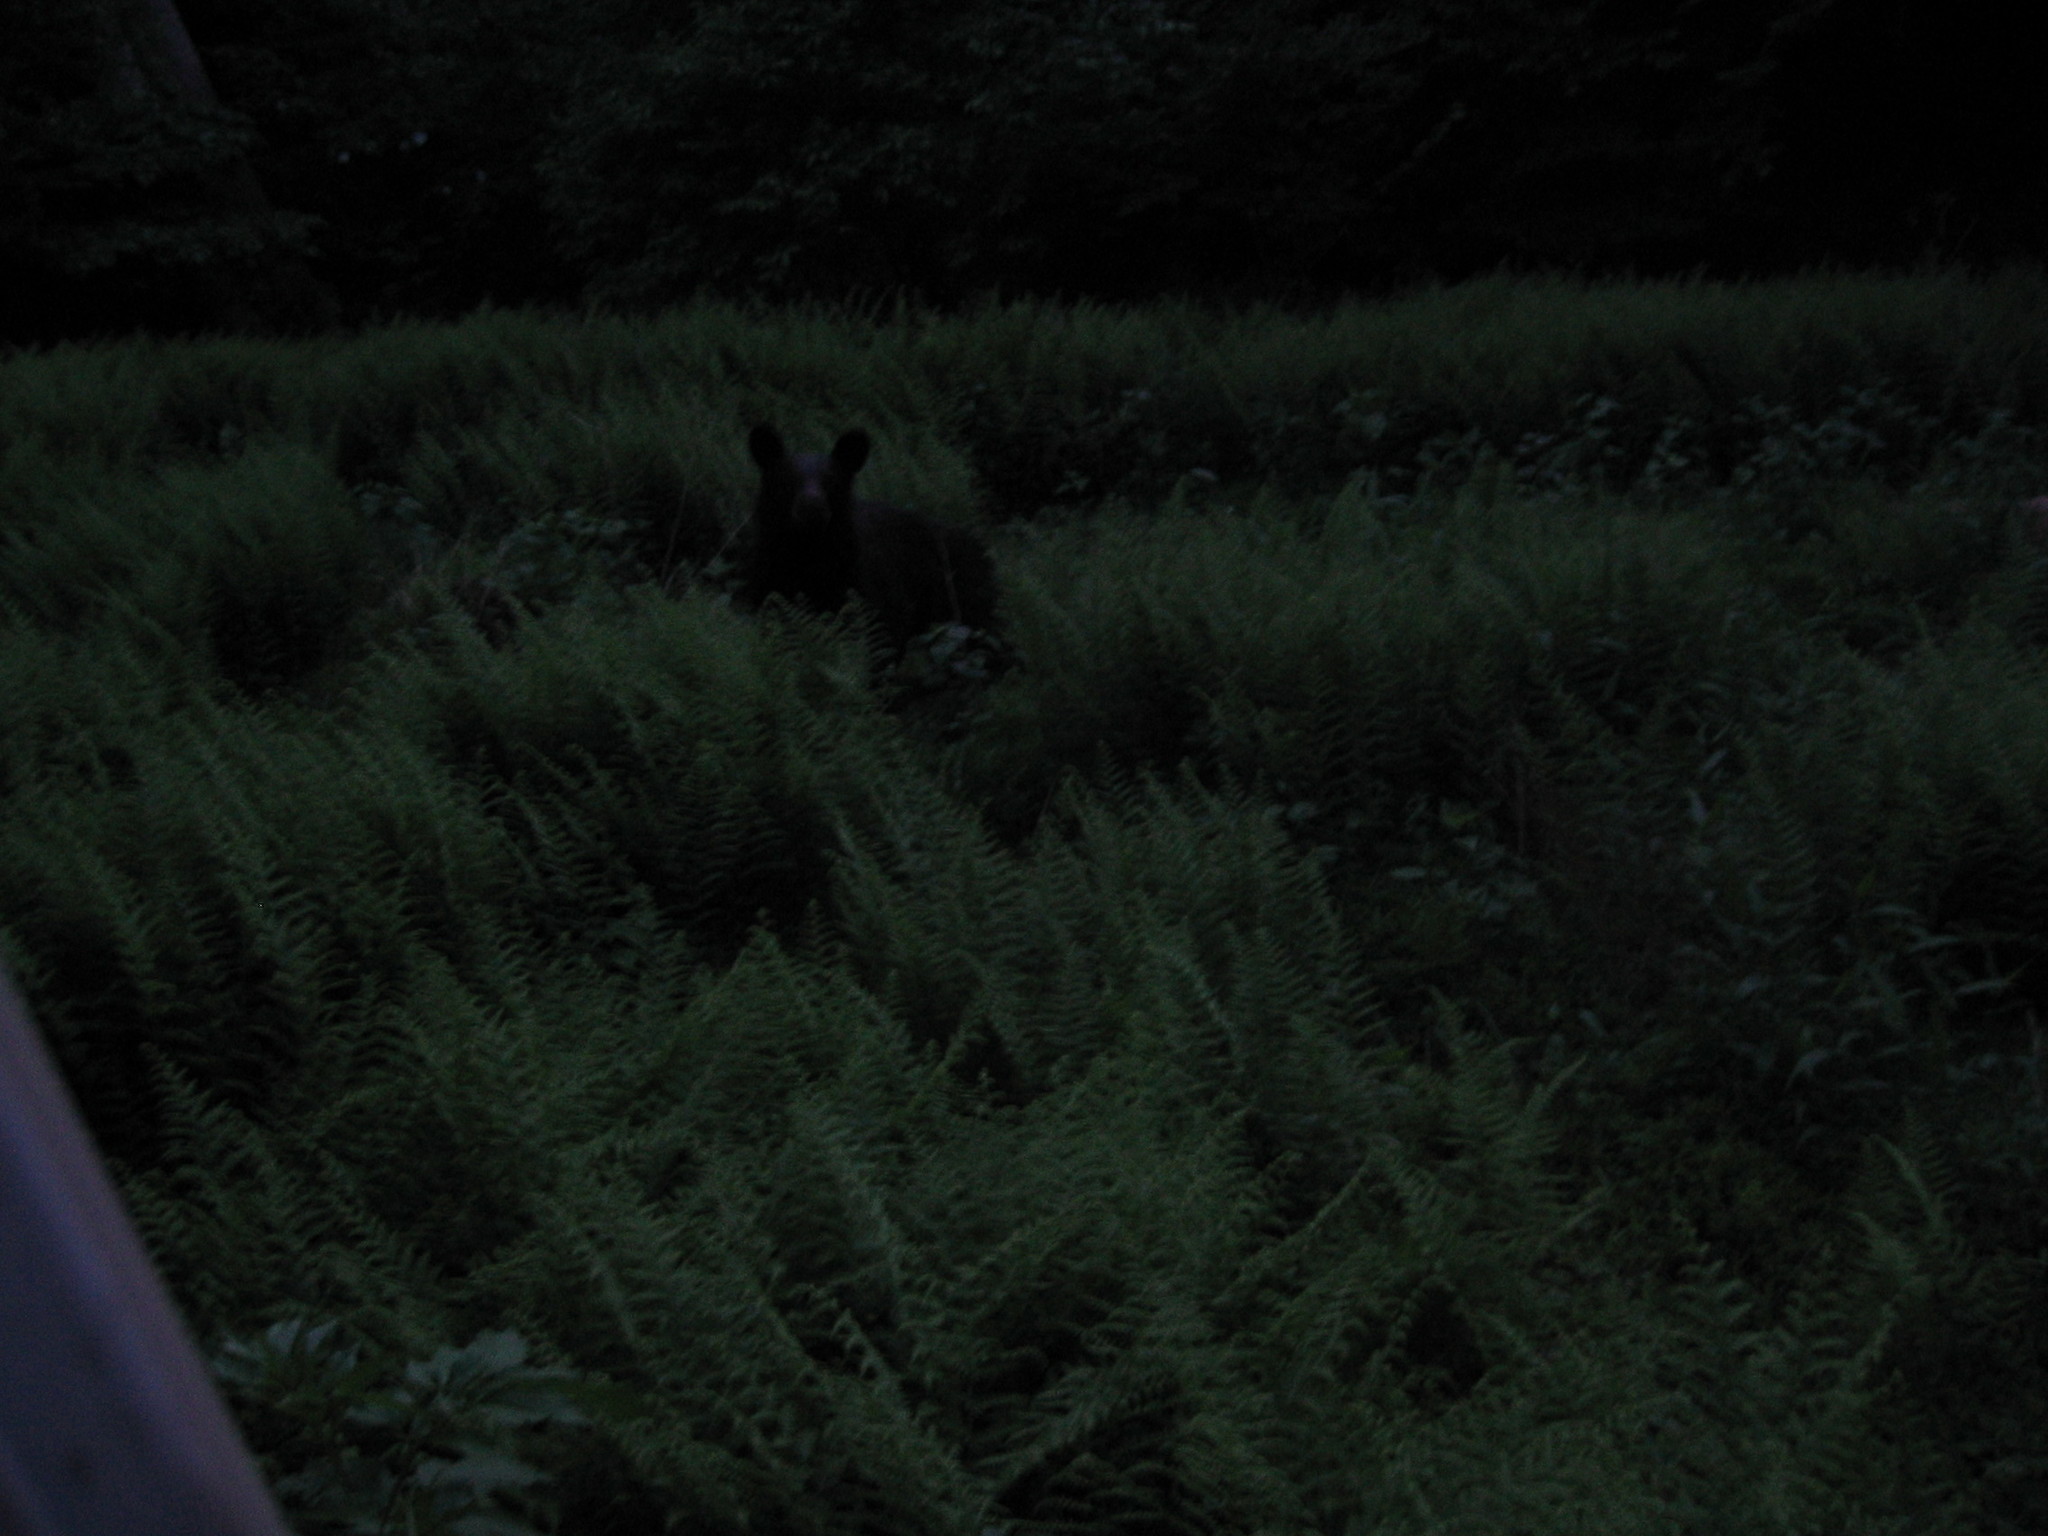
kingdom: Animalia
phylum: Chordata
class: Mammalia
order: Carnivora
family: Ursidae
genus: Ursus
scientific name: Ursus americanus
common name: American black bear
